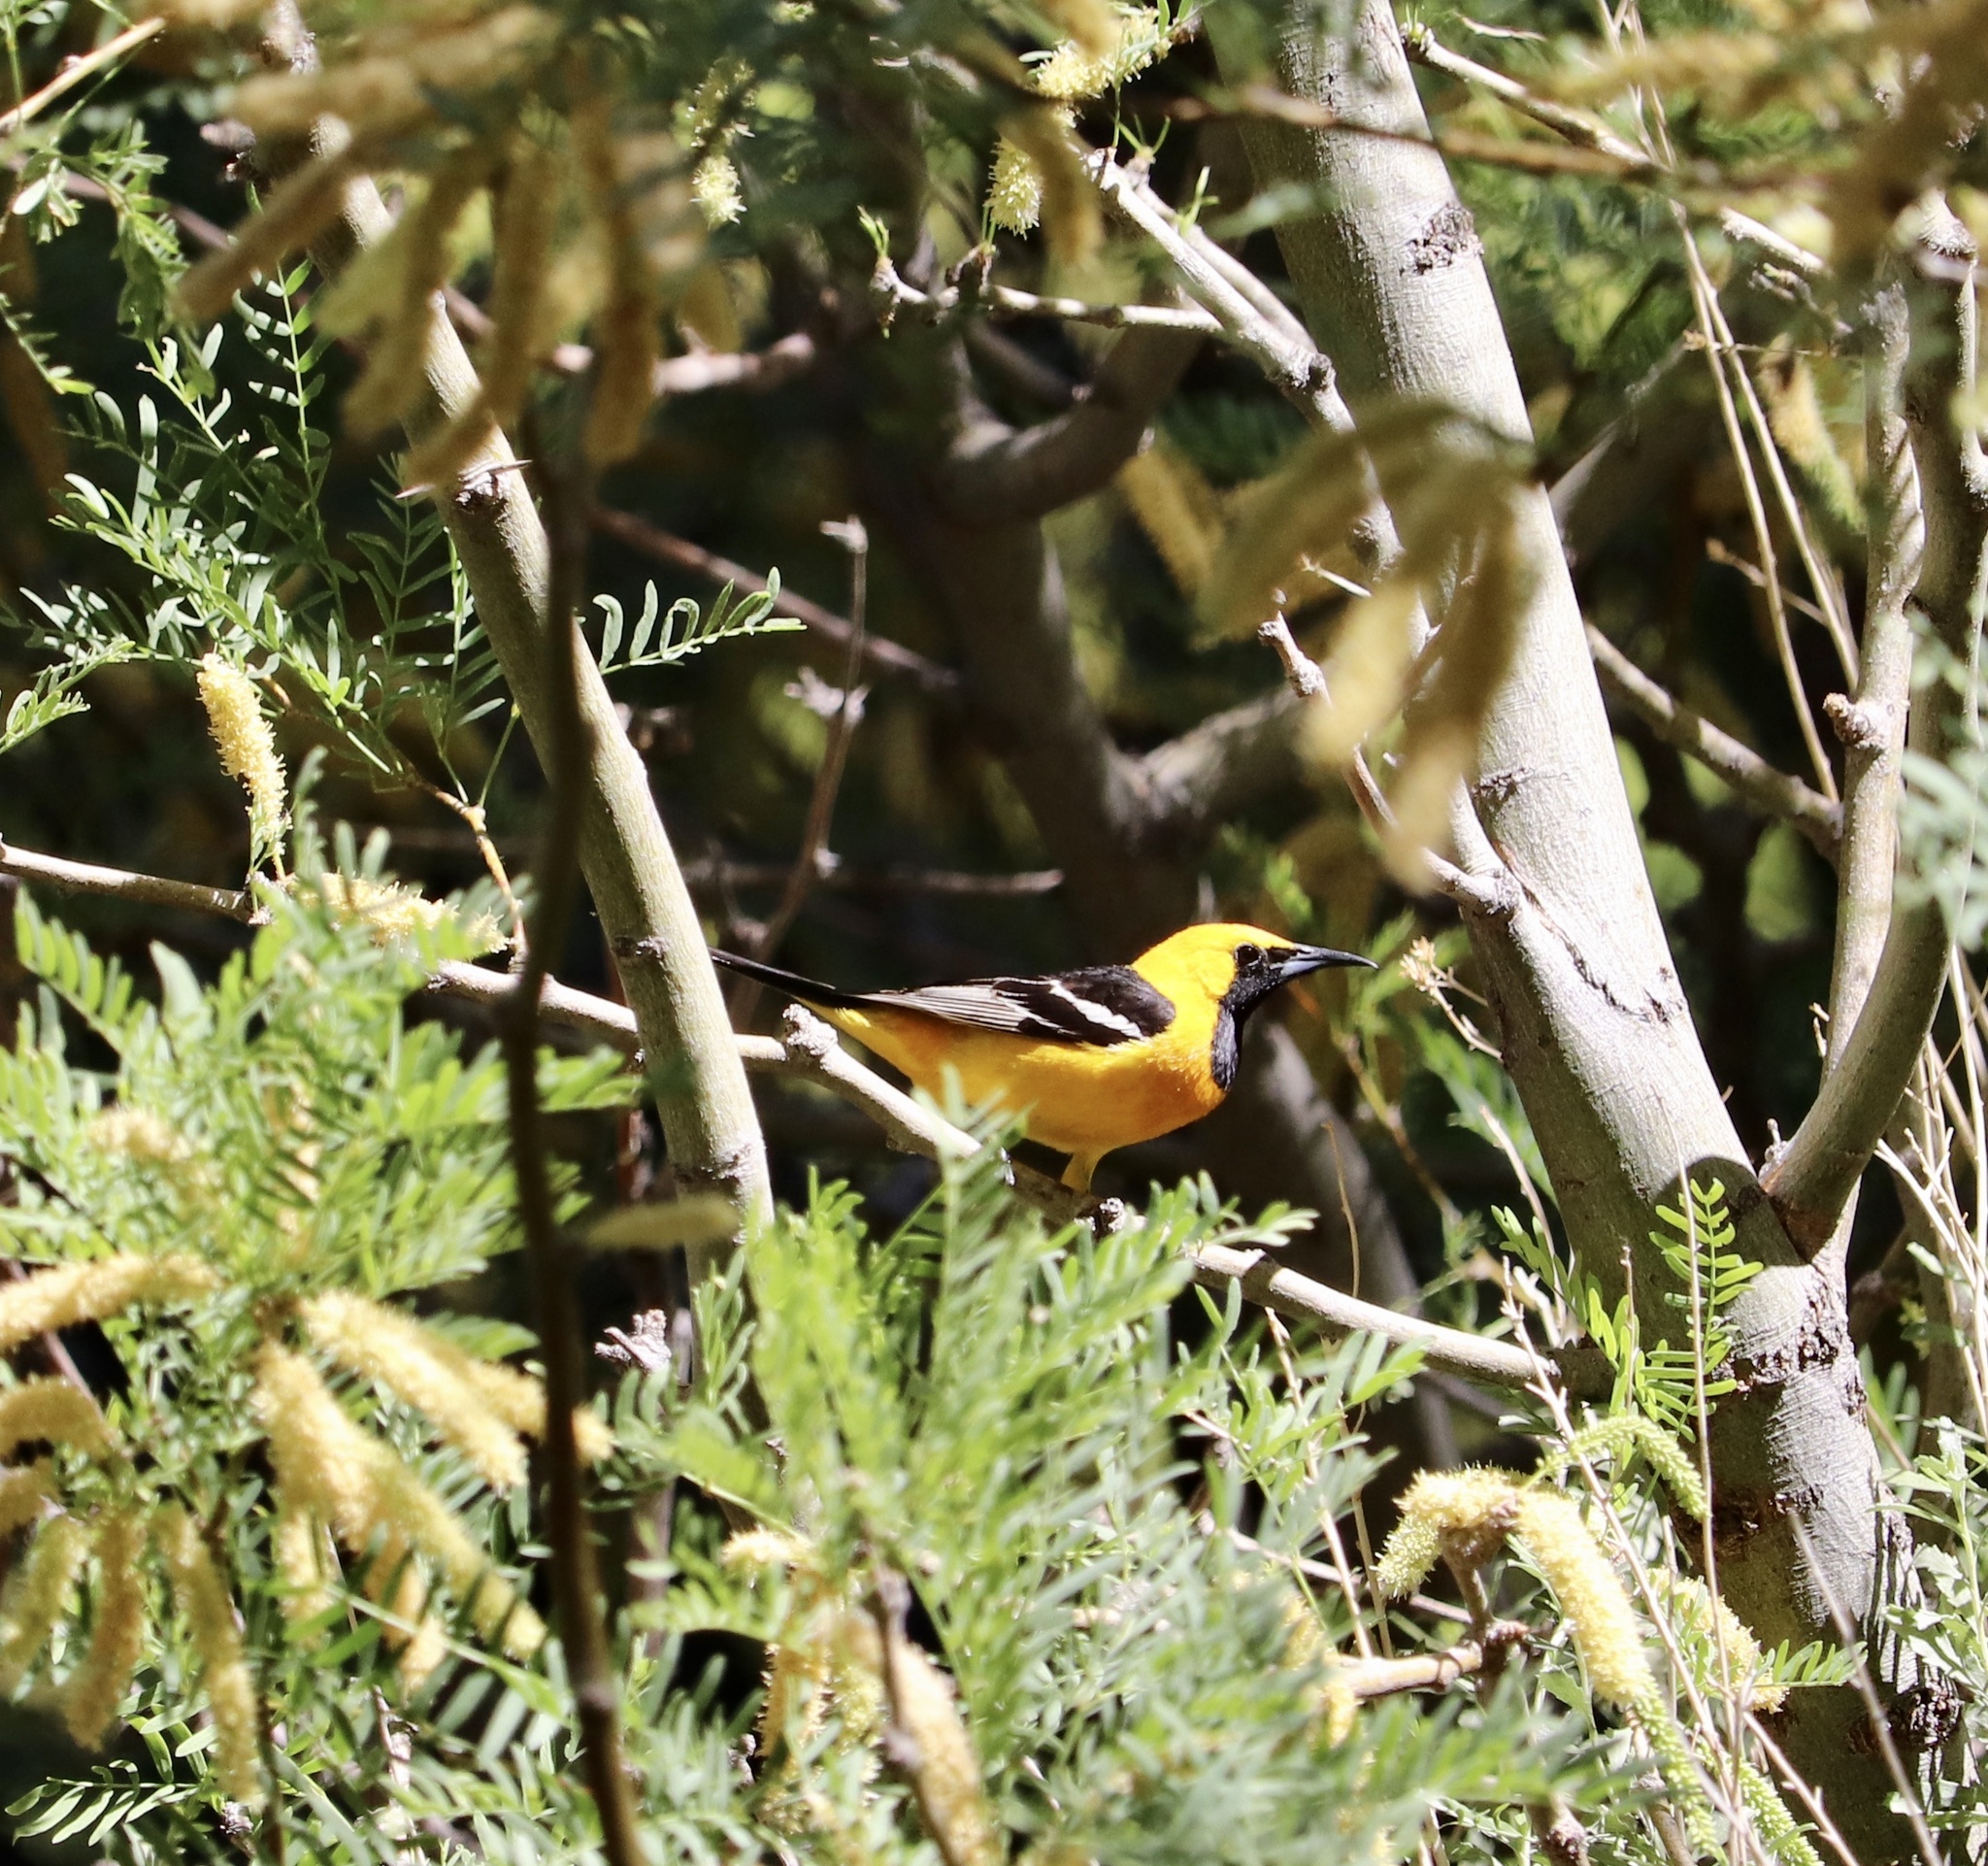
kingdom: Animalia
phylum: Chordata
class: Aves
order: Passeriformes
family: Icteridae
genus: Icterus
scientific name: Icterus cucullatus
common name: Hooded oriole
